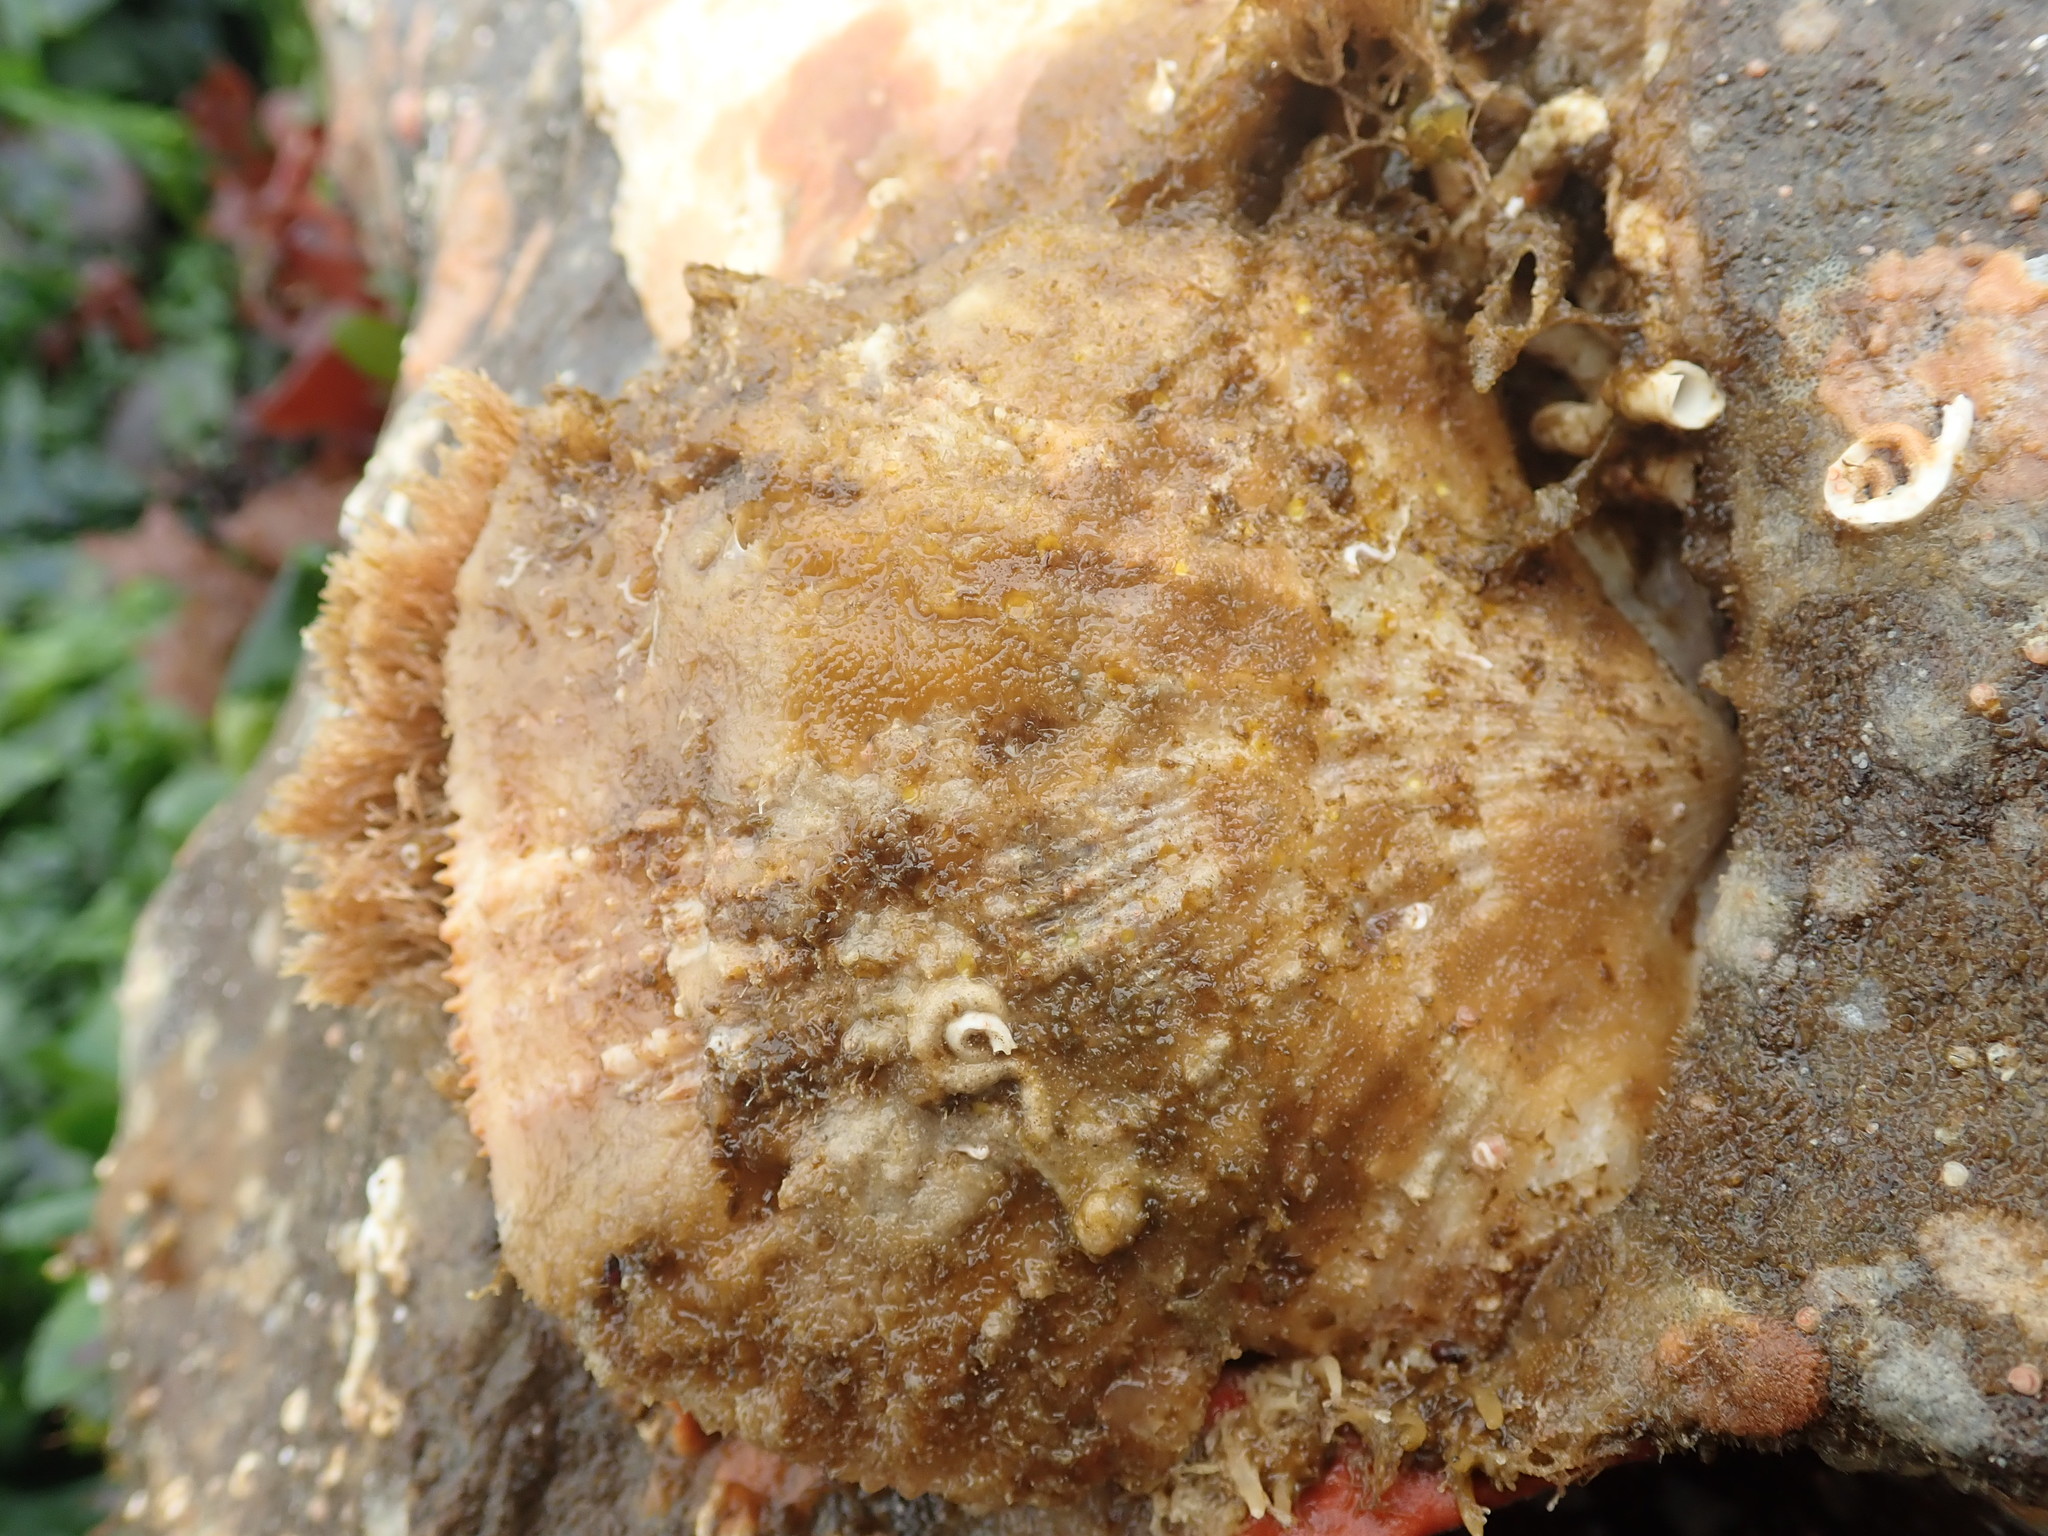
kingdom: Animalia
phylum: Mollusca
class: Bivalvia
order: Pectinida
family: Pectinidae
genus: Crassadoma
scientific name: Crassadoma gigantea
